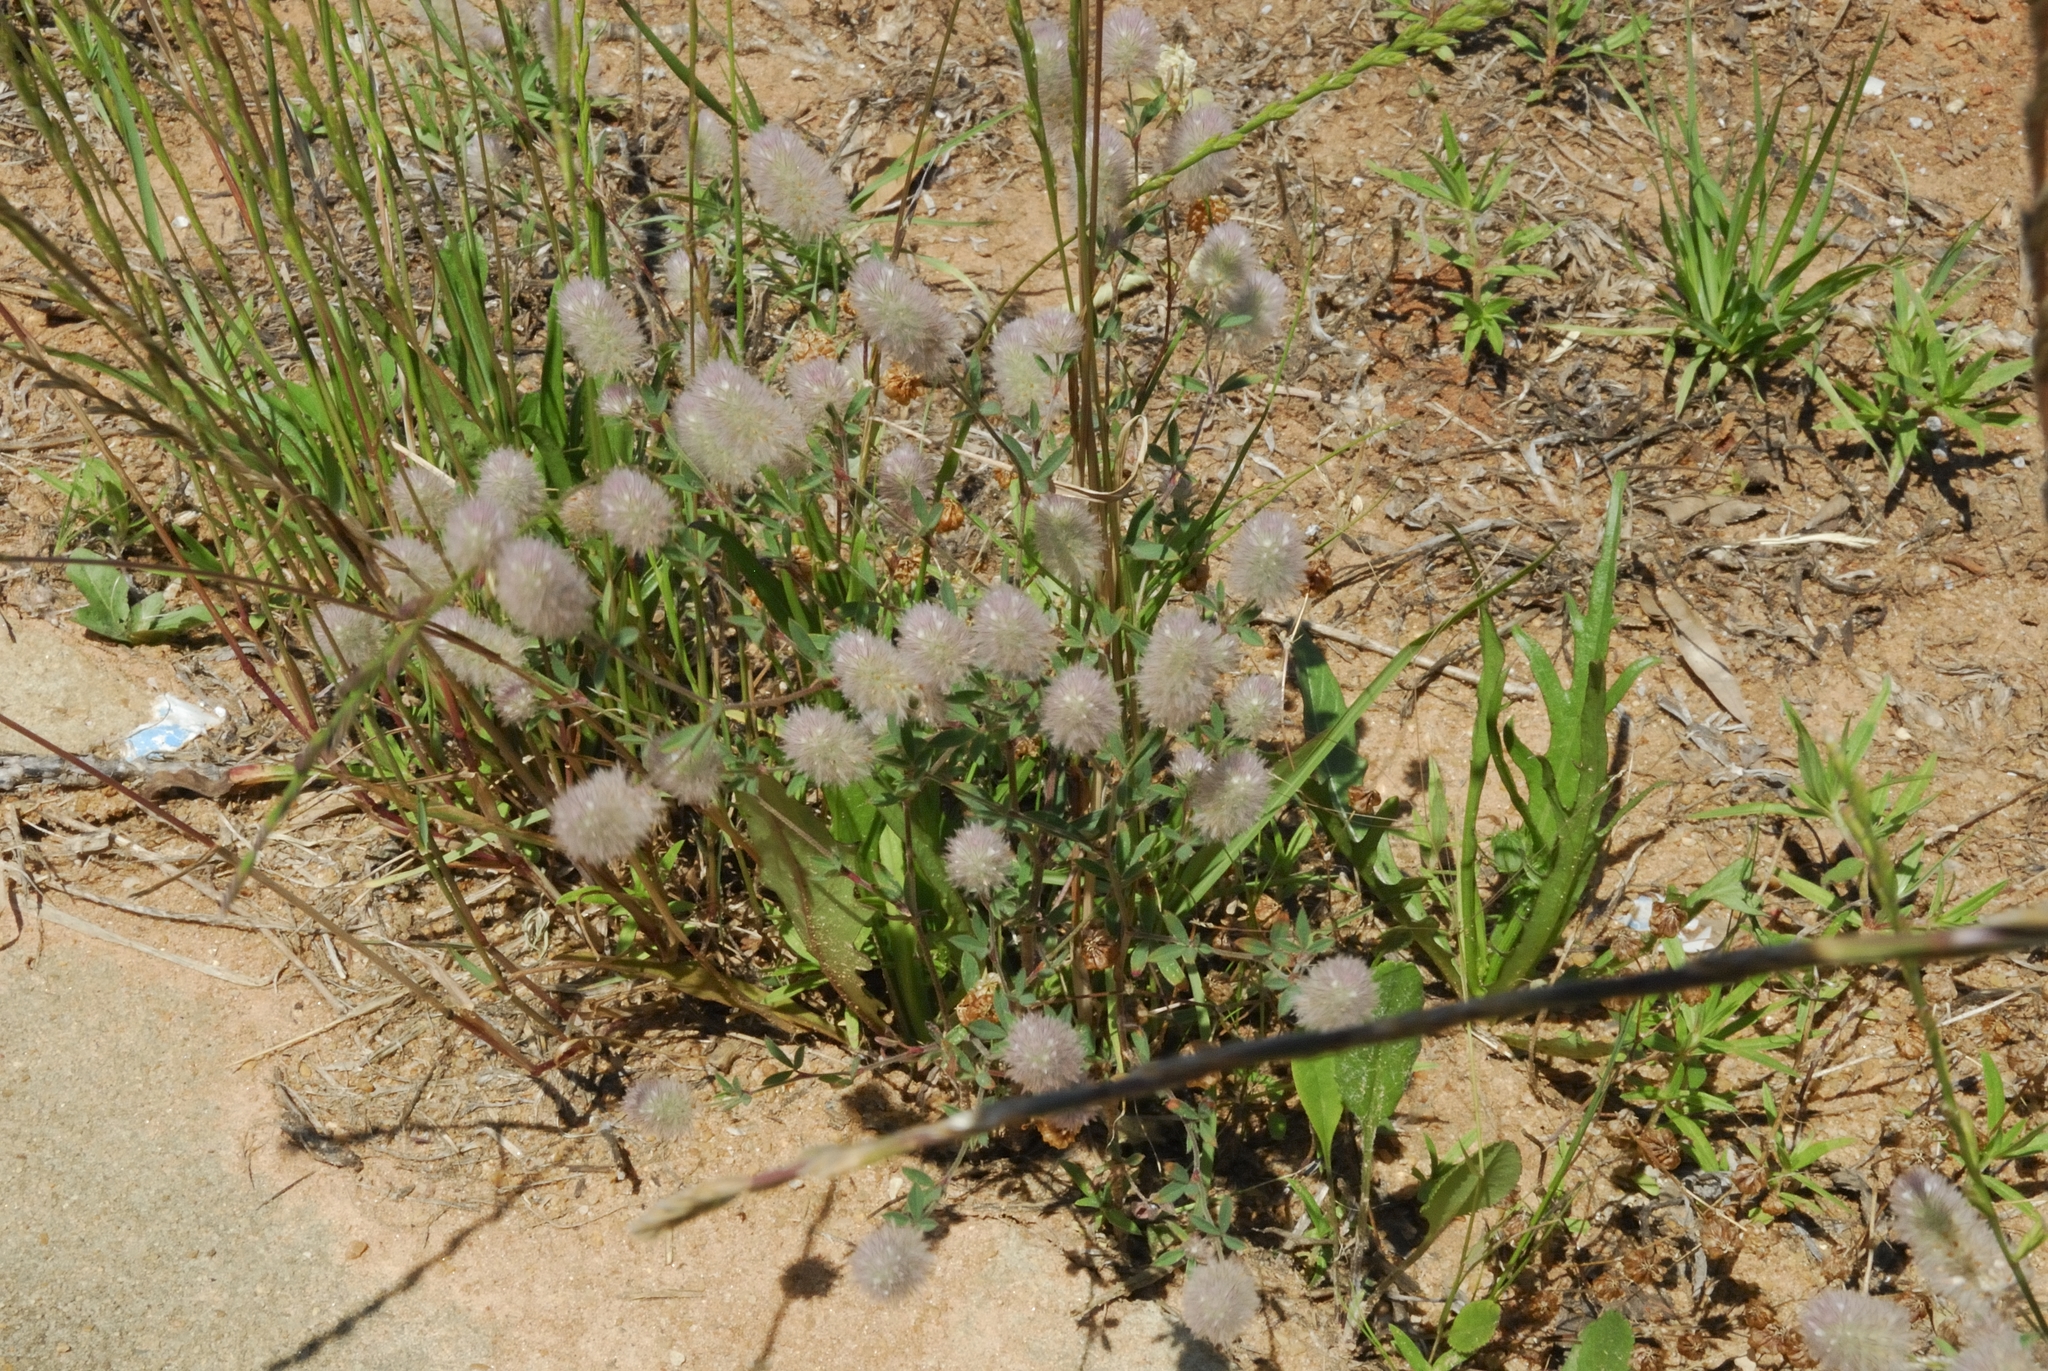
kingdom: Plantae
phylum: Tracheophyta
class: Magnoliopsida
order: Fabales
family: Fabaceae
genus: Trifolium
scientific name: Trifolium arvense
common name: Hare's-foot clover
